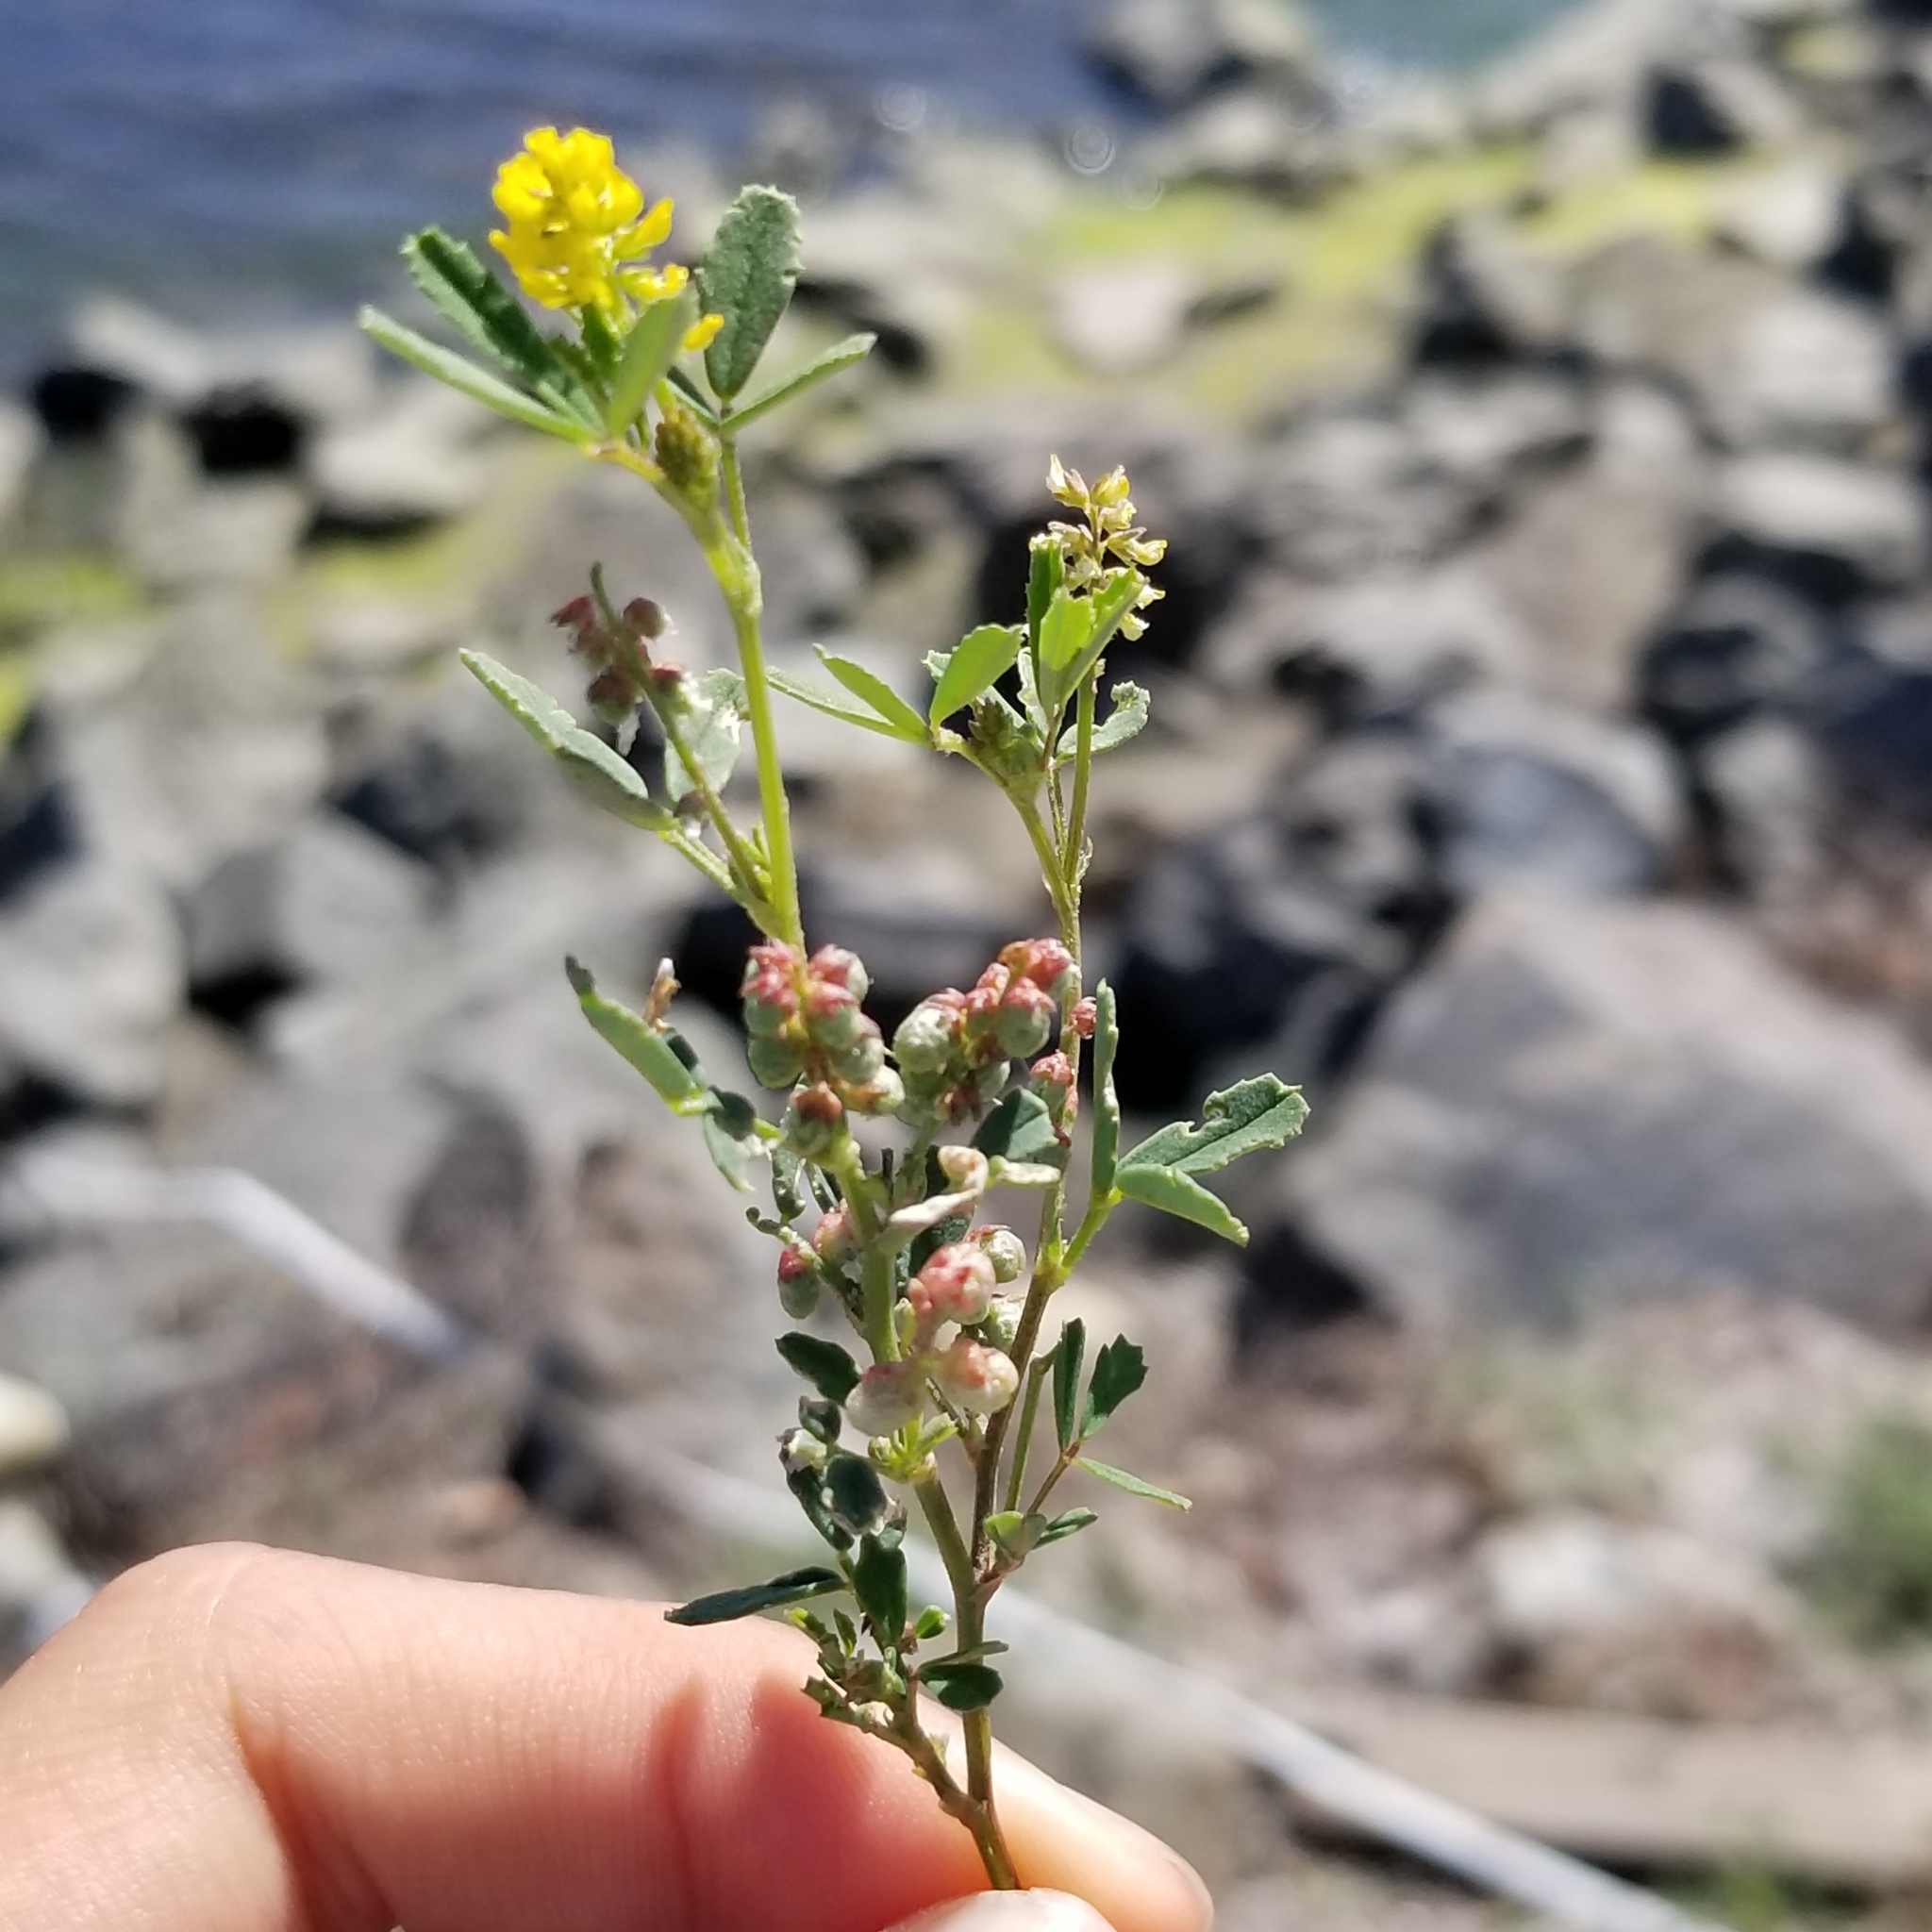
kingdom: Plantae
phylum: Tracheophyta
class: Magnoliopsida
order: Fabales
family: Fabaceae
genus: Melilotus
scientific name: Melilotus indicus
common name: Small melilot
